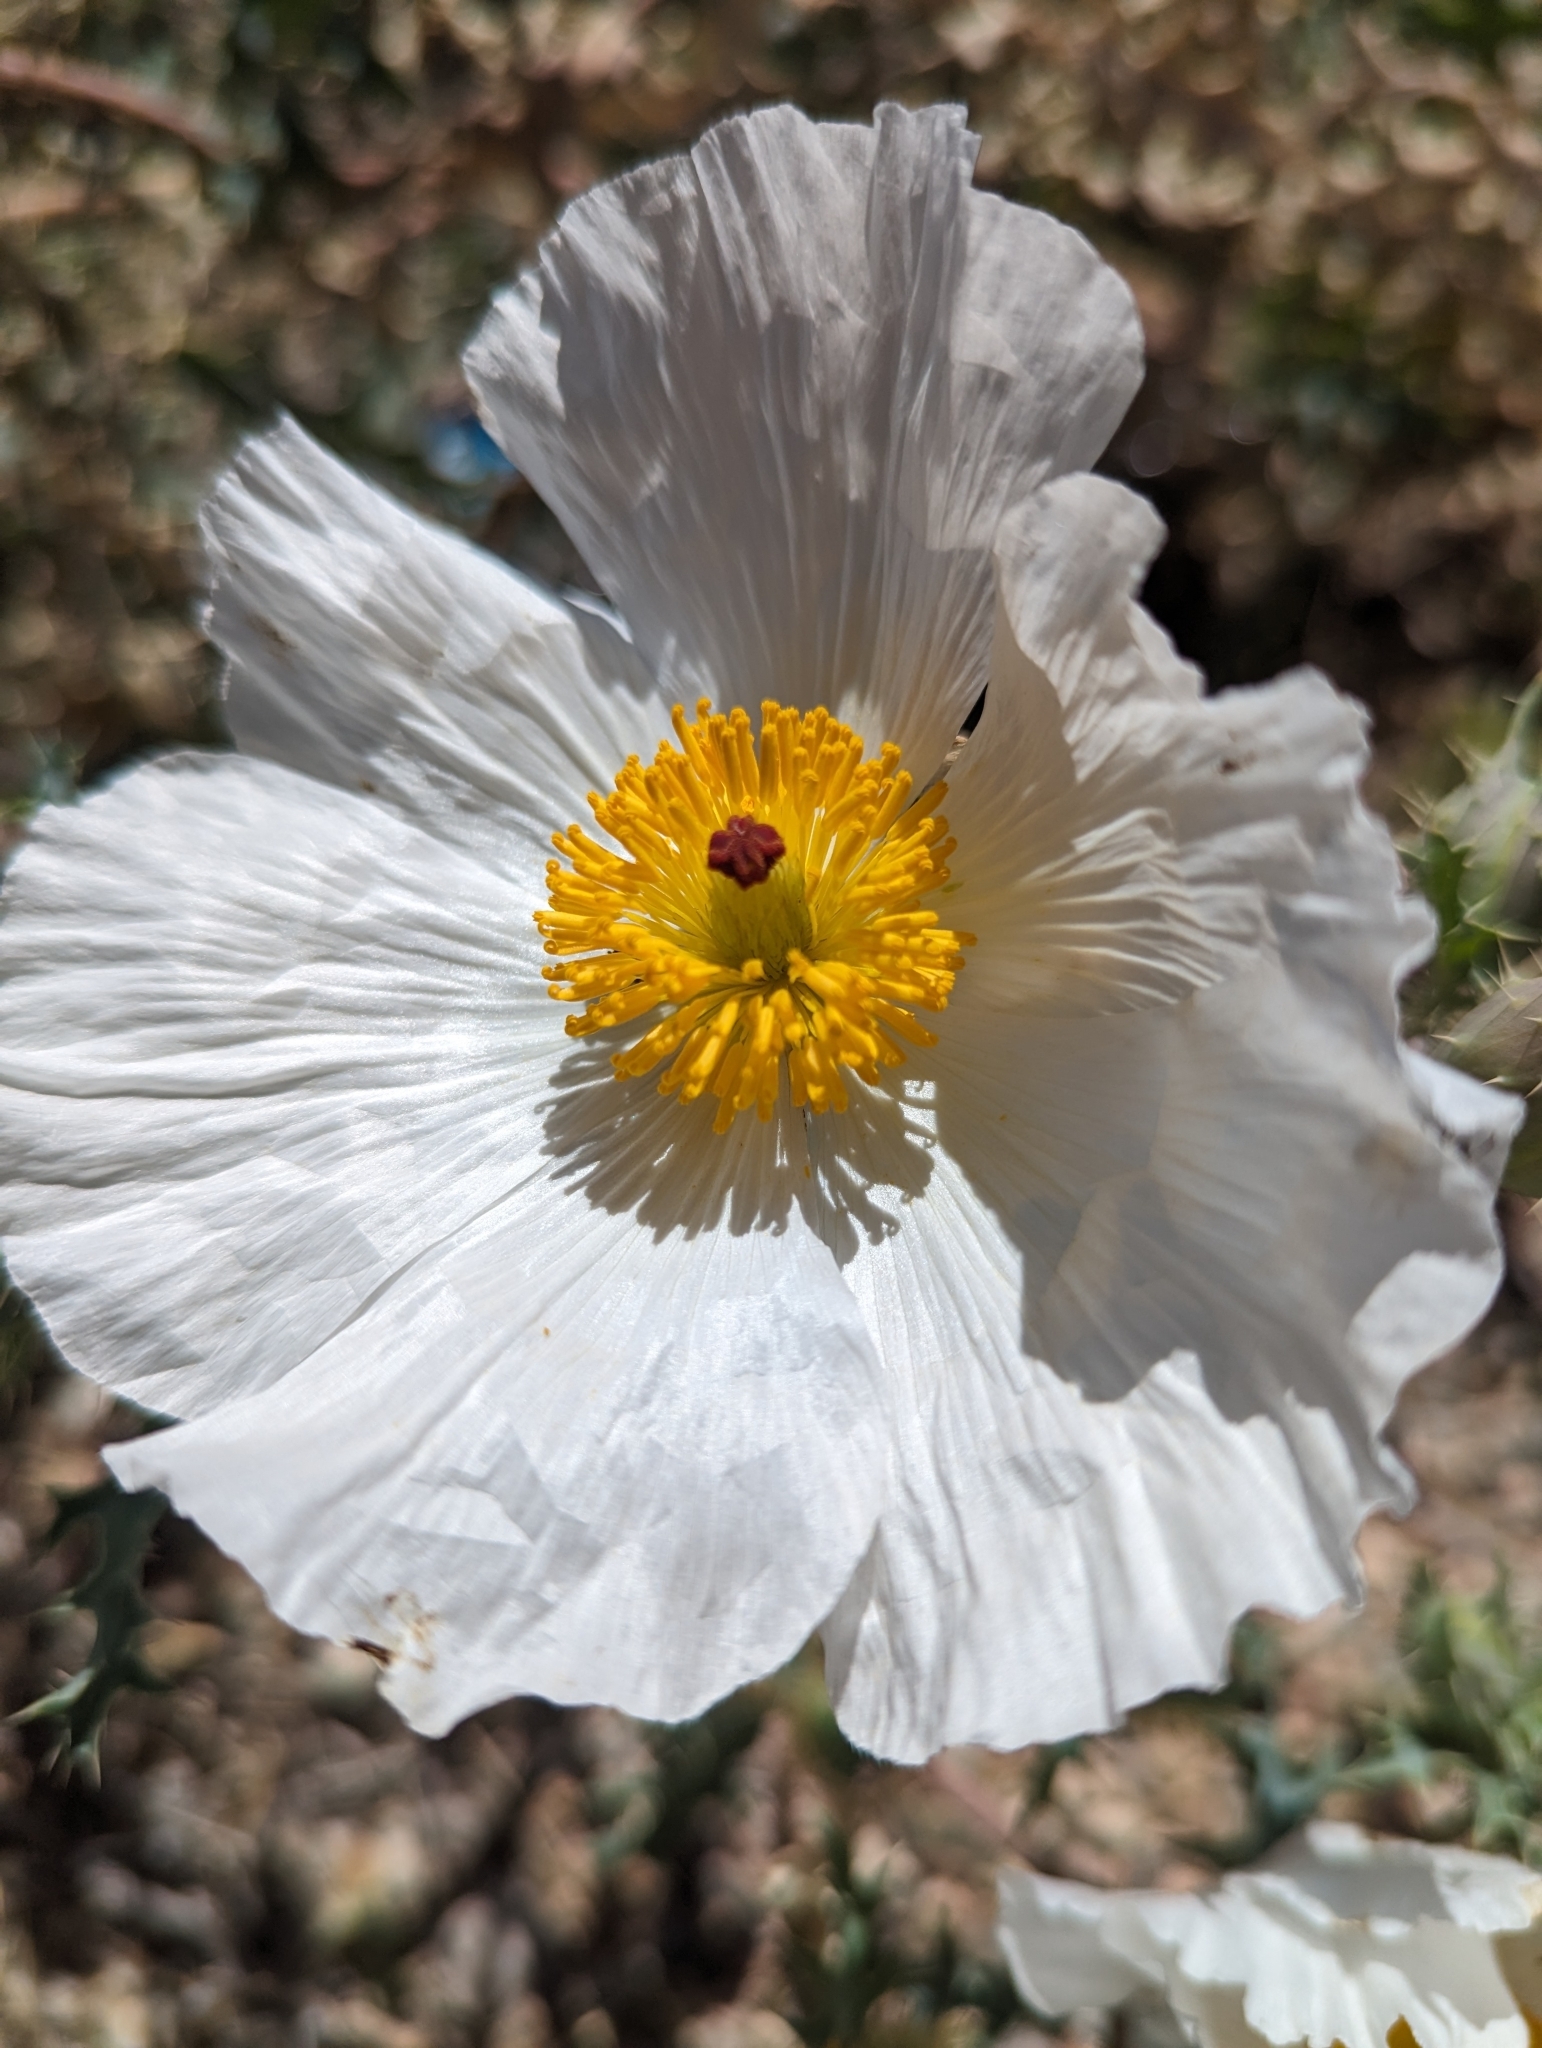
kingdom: Plantae
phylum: Tracheophyta
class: Magnoliopsida
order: Ranunculales
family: Papaveraceae
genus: Argemone
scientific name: Argemone pleiacantha
